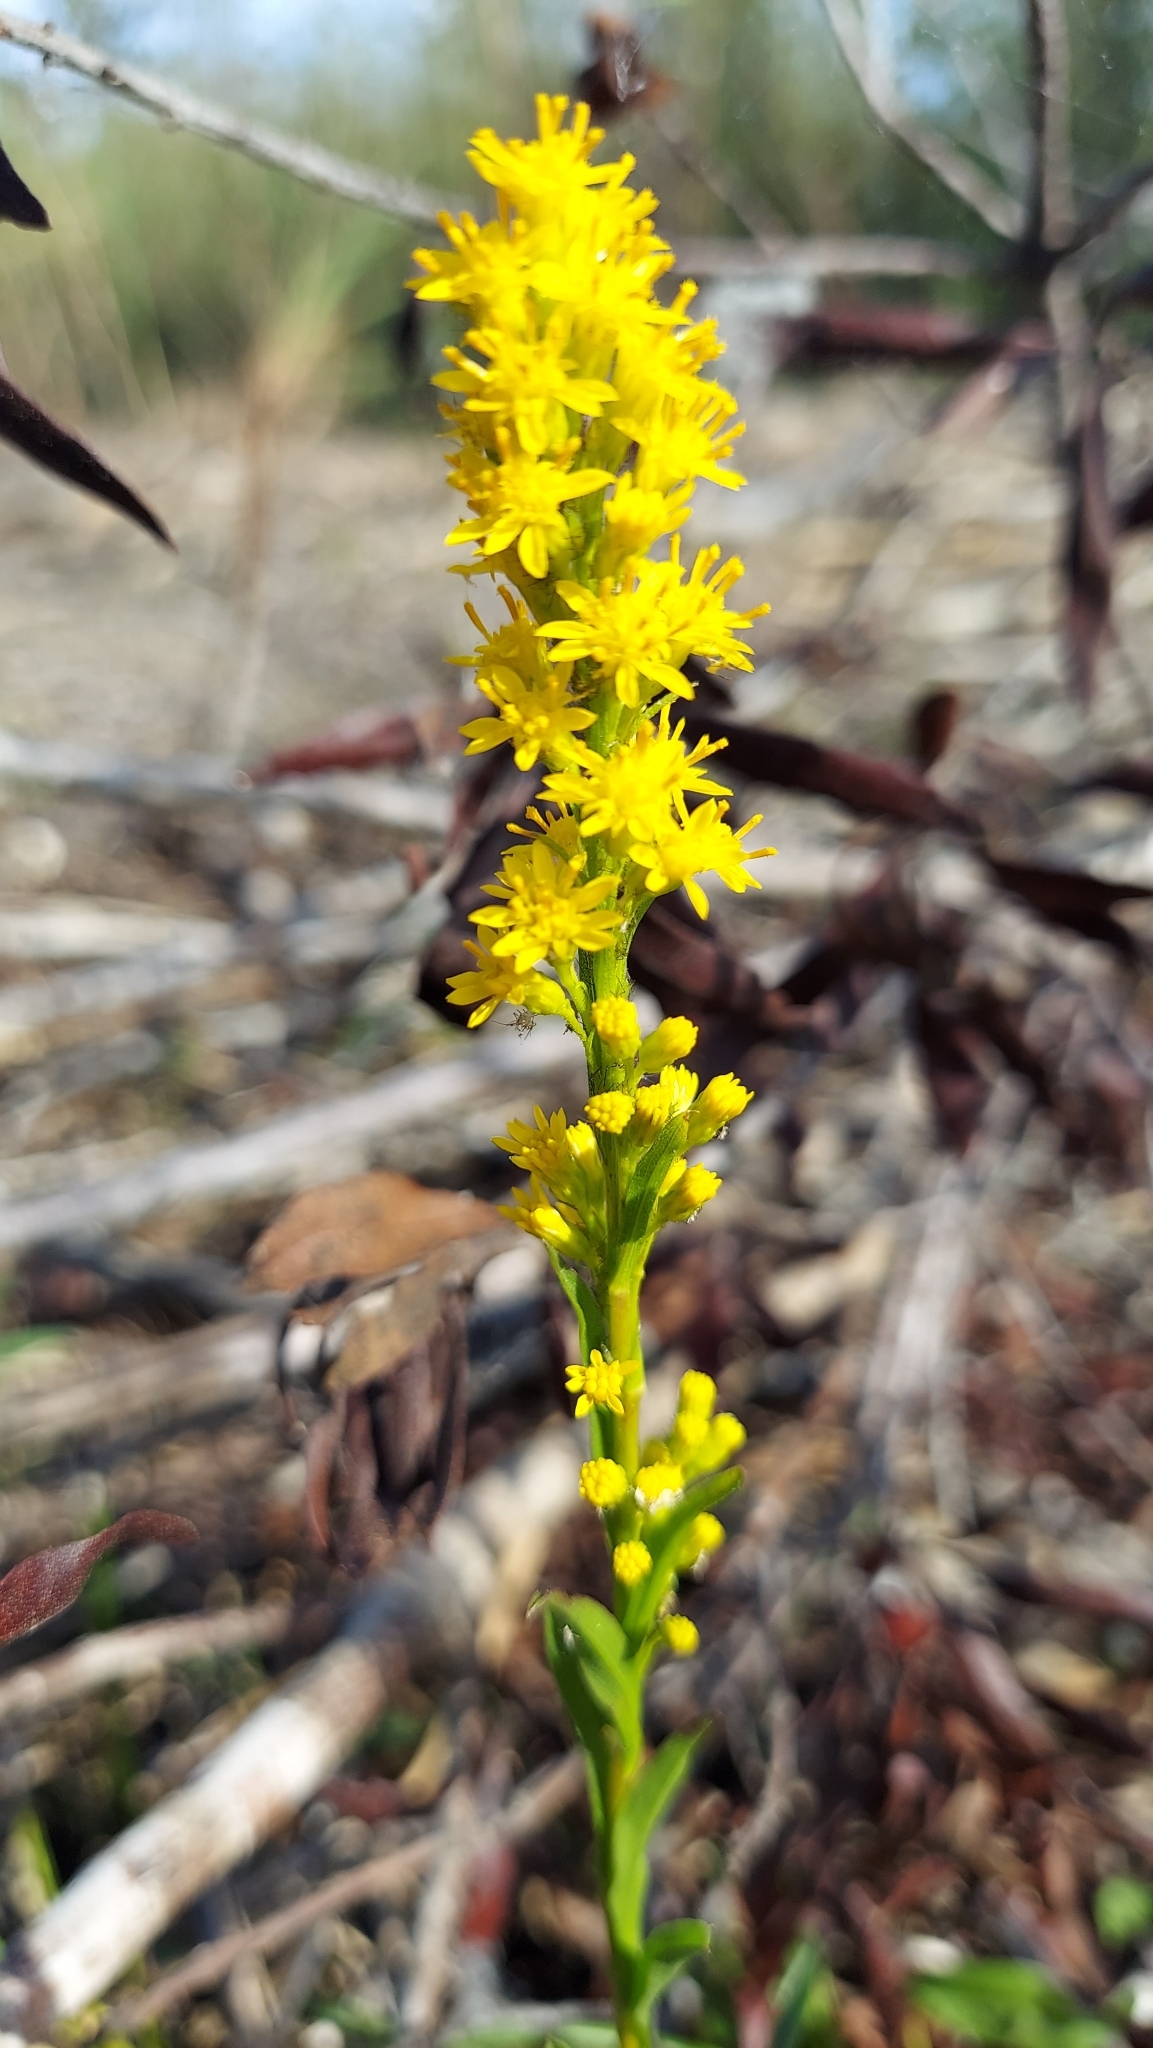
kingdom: Plantae
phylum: Tracheophyta
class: Magnoliopsida
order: Asterales
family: Asteraceae
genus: Solidago
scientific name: Solidago mexicana
